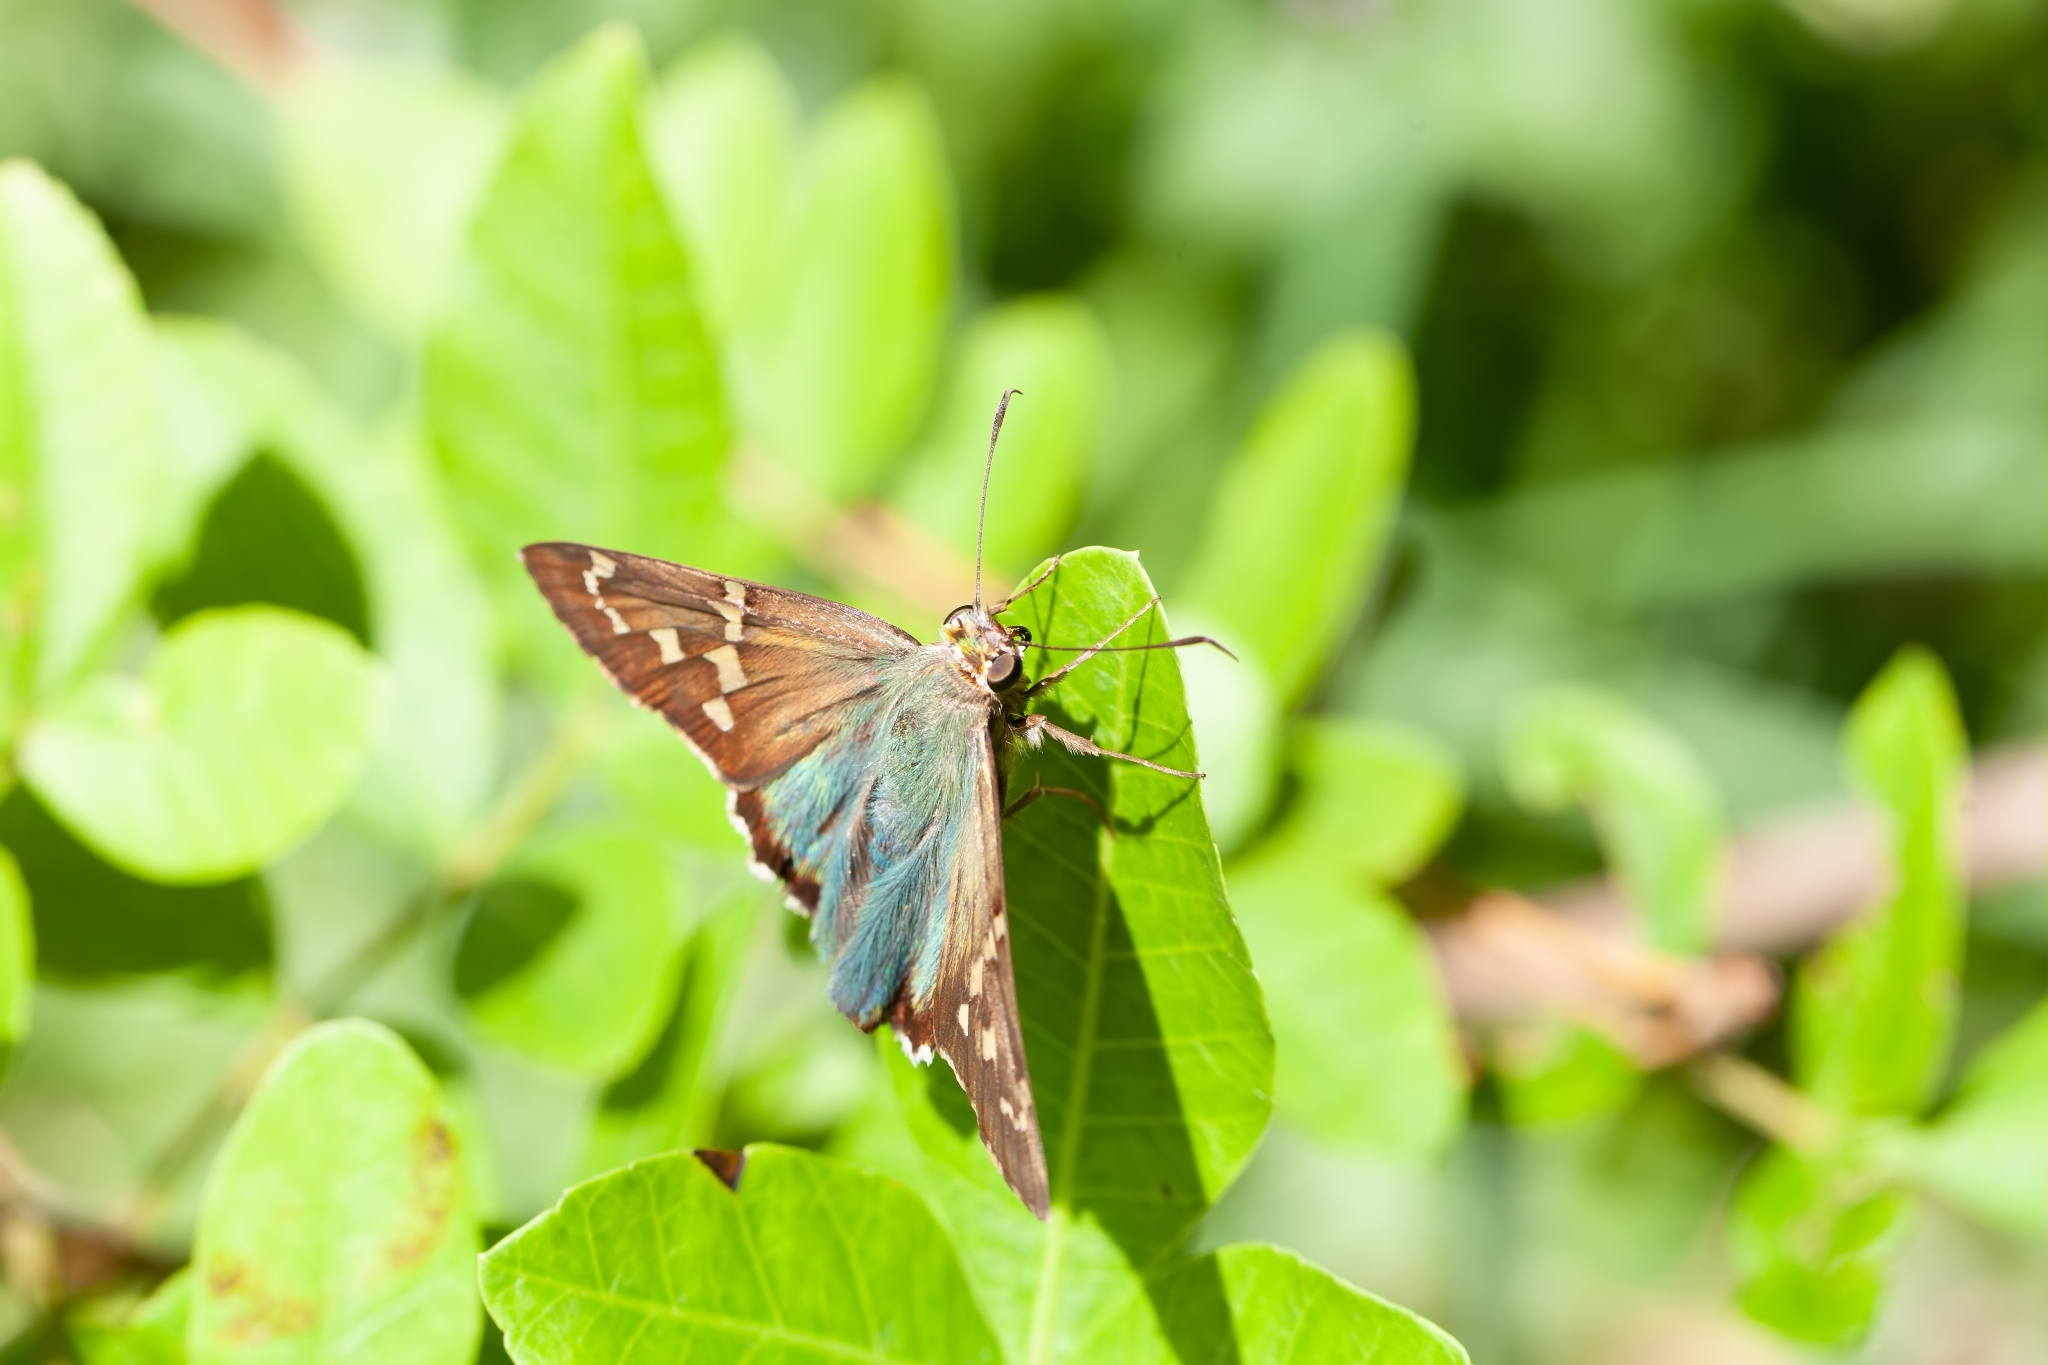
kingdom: Animalia
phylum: Arthropoda
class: Insecta
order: Lepidoptera
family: Hesperiidae
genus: Urbanus
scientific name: Urbanus proteus
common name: Long-tailed skipper
